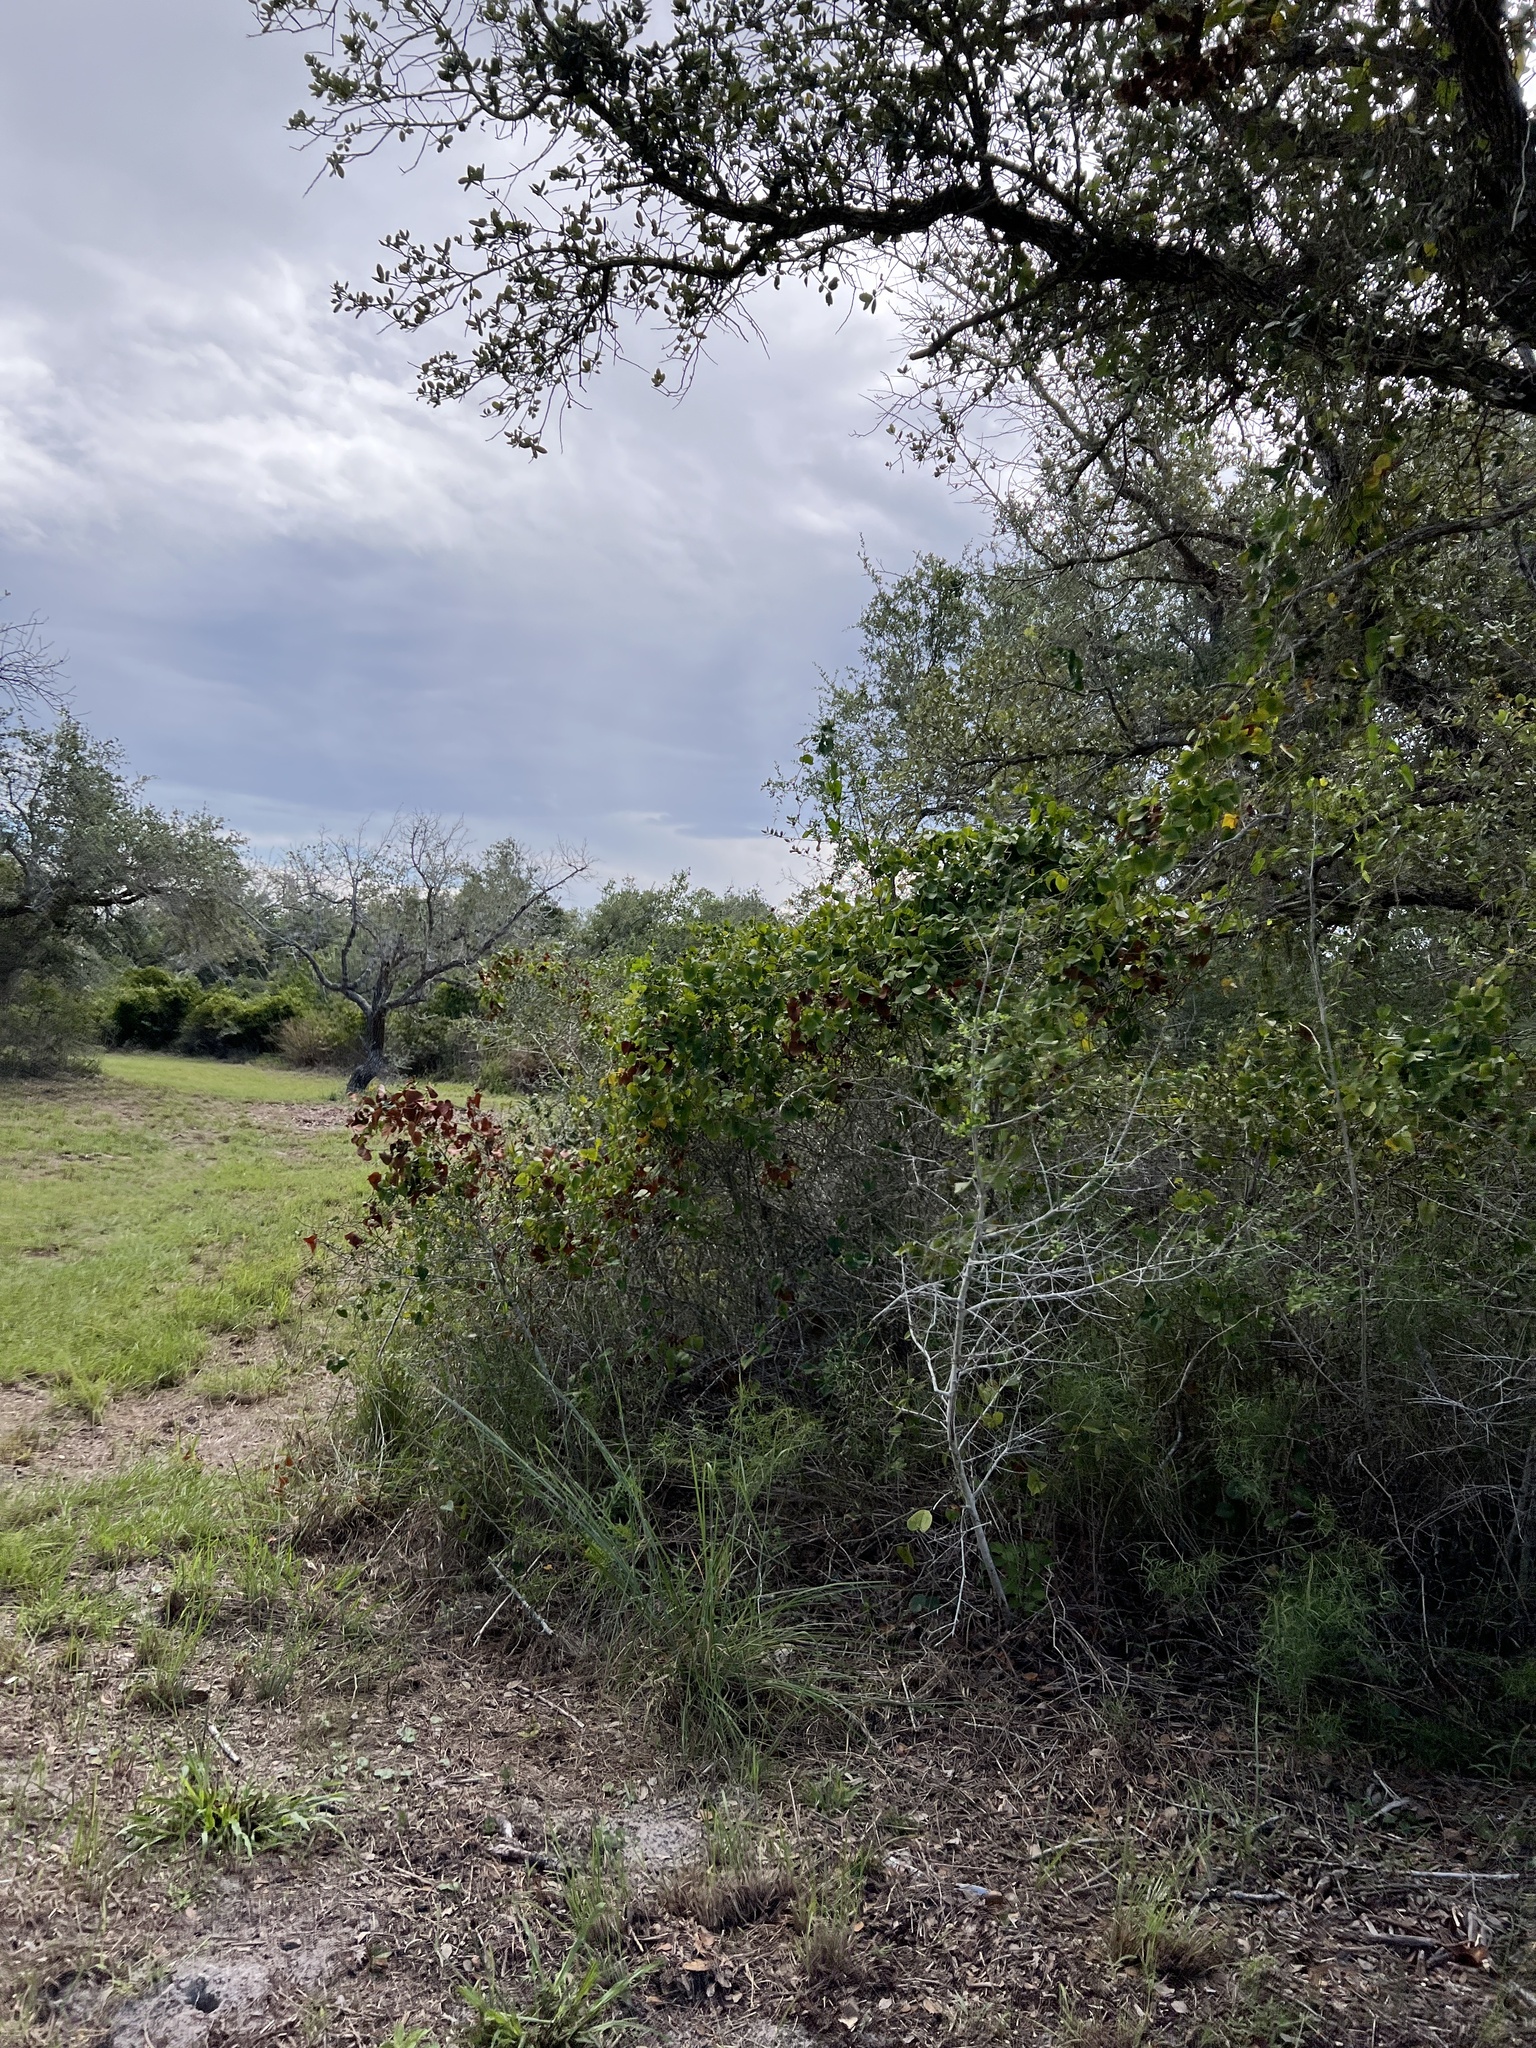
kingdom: Plantae
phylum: Tracheophyta
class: Liliopsida
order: Liliales
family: Smilacaceae
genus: Smilax
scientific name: Smilax bona-nox
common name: Catbrier
